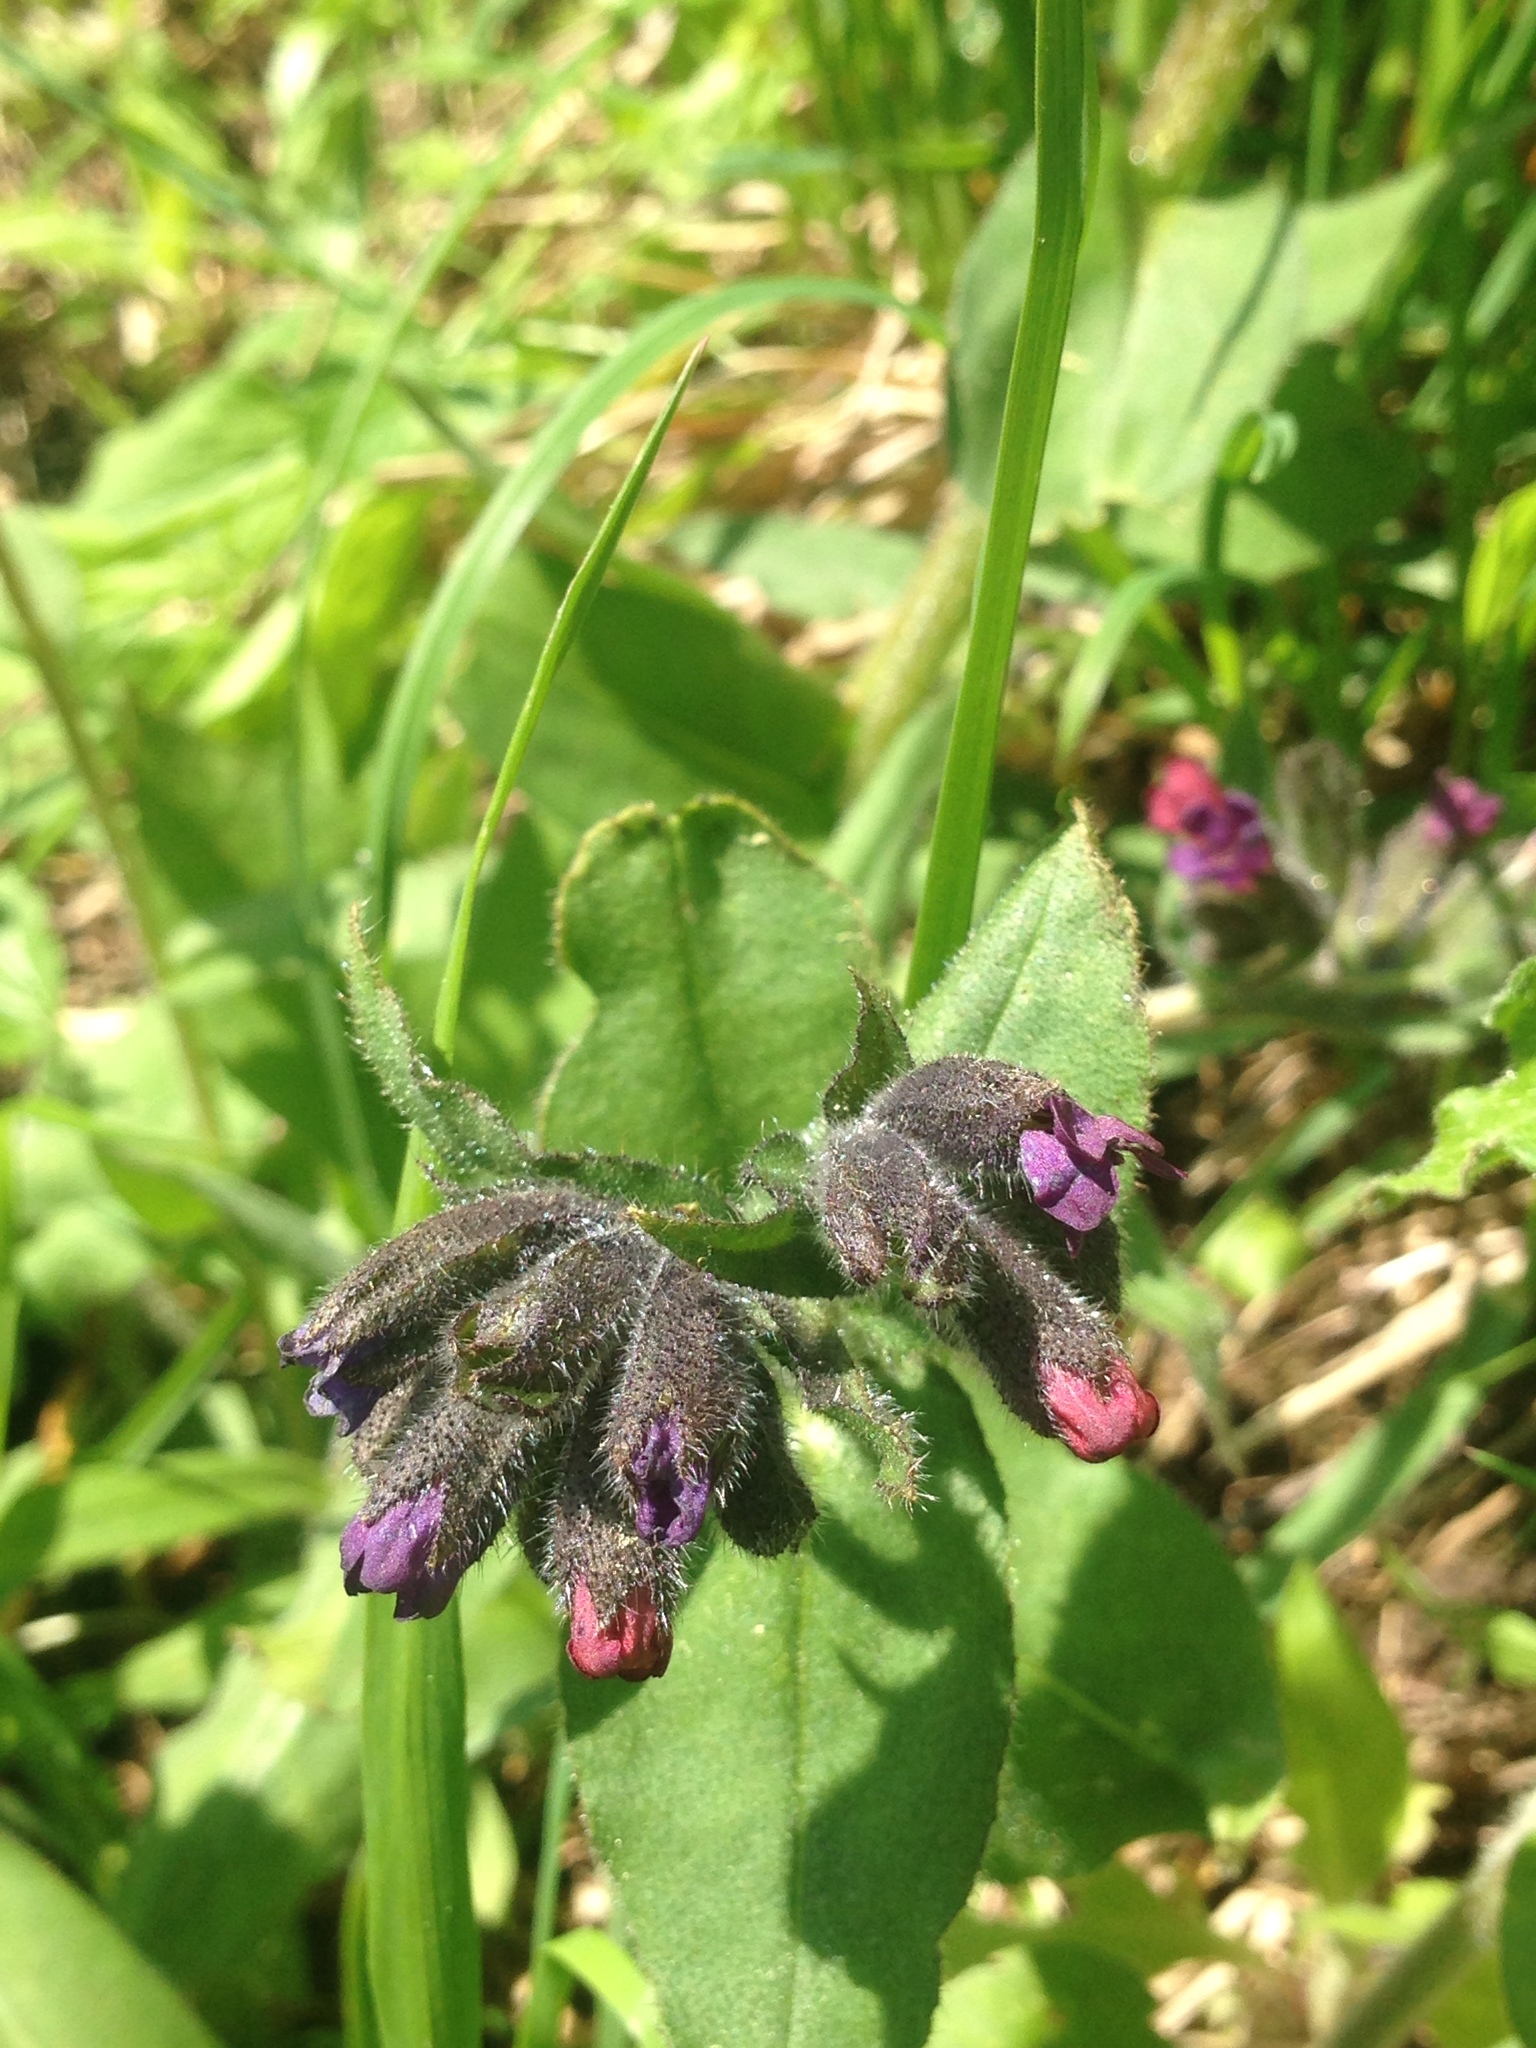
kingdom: Plantae
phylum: Tracheophyta
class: Magnoliopsida
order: Boraginales
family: Boraginaceae
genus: Cynoglossum
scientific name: Cynoglossum officinale
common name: Hound's-tongue
